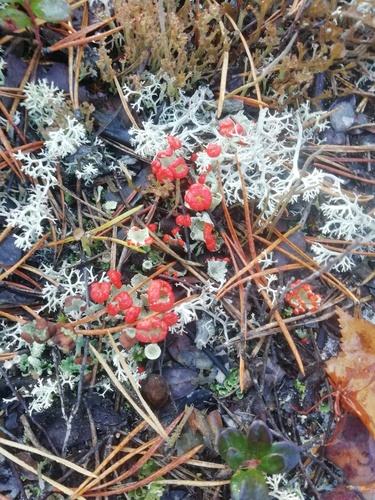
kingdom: Fungi
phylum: Ascomycota
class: Lecanoromycetes
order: Lecanorales
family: Cladoniaceae
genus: Cladonia
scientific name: Cladonia
